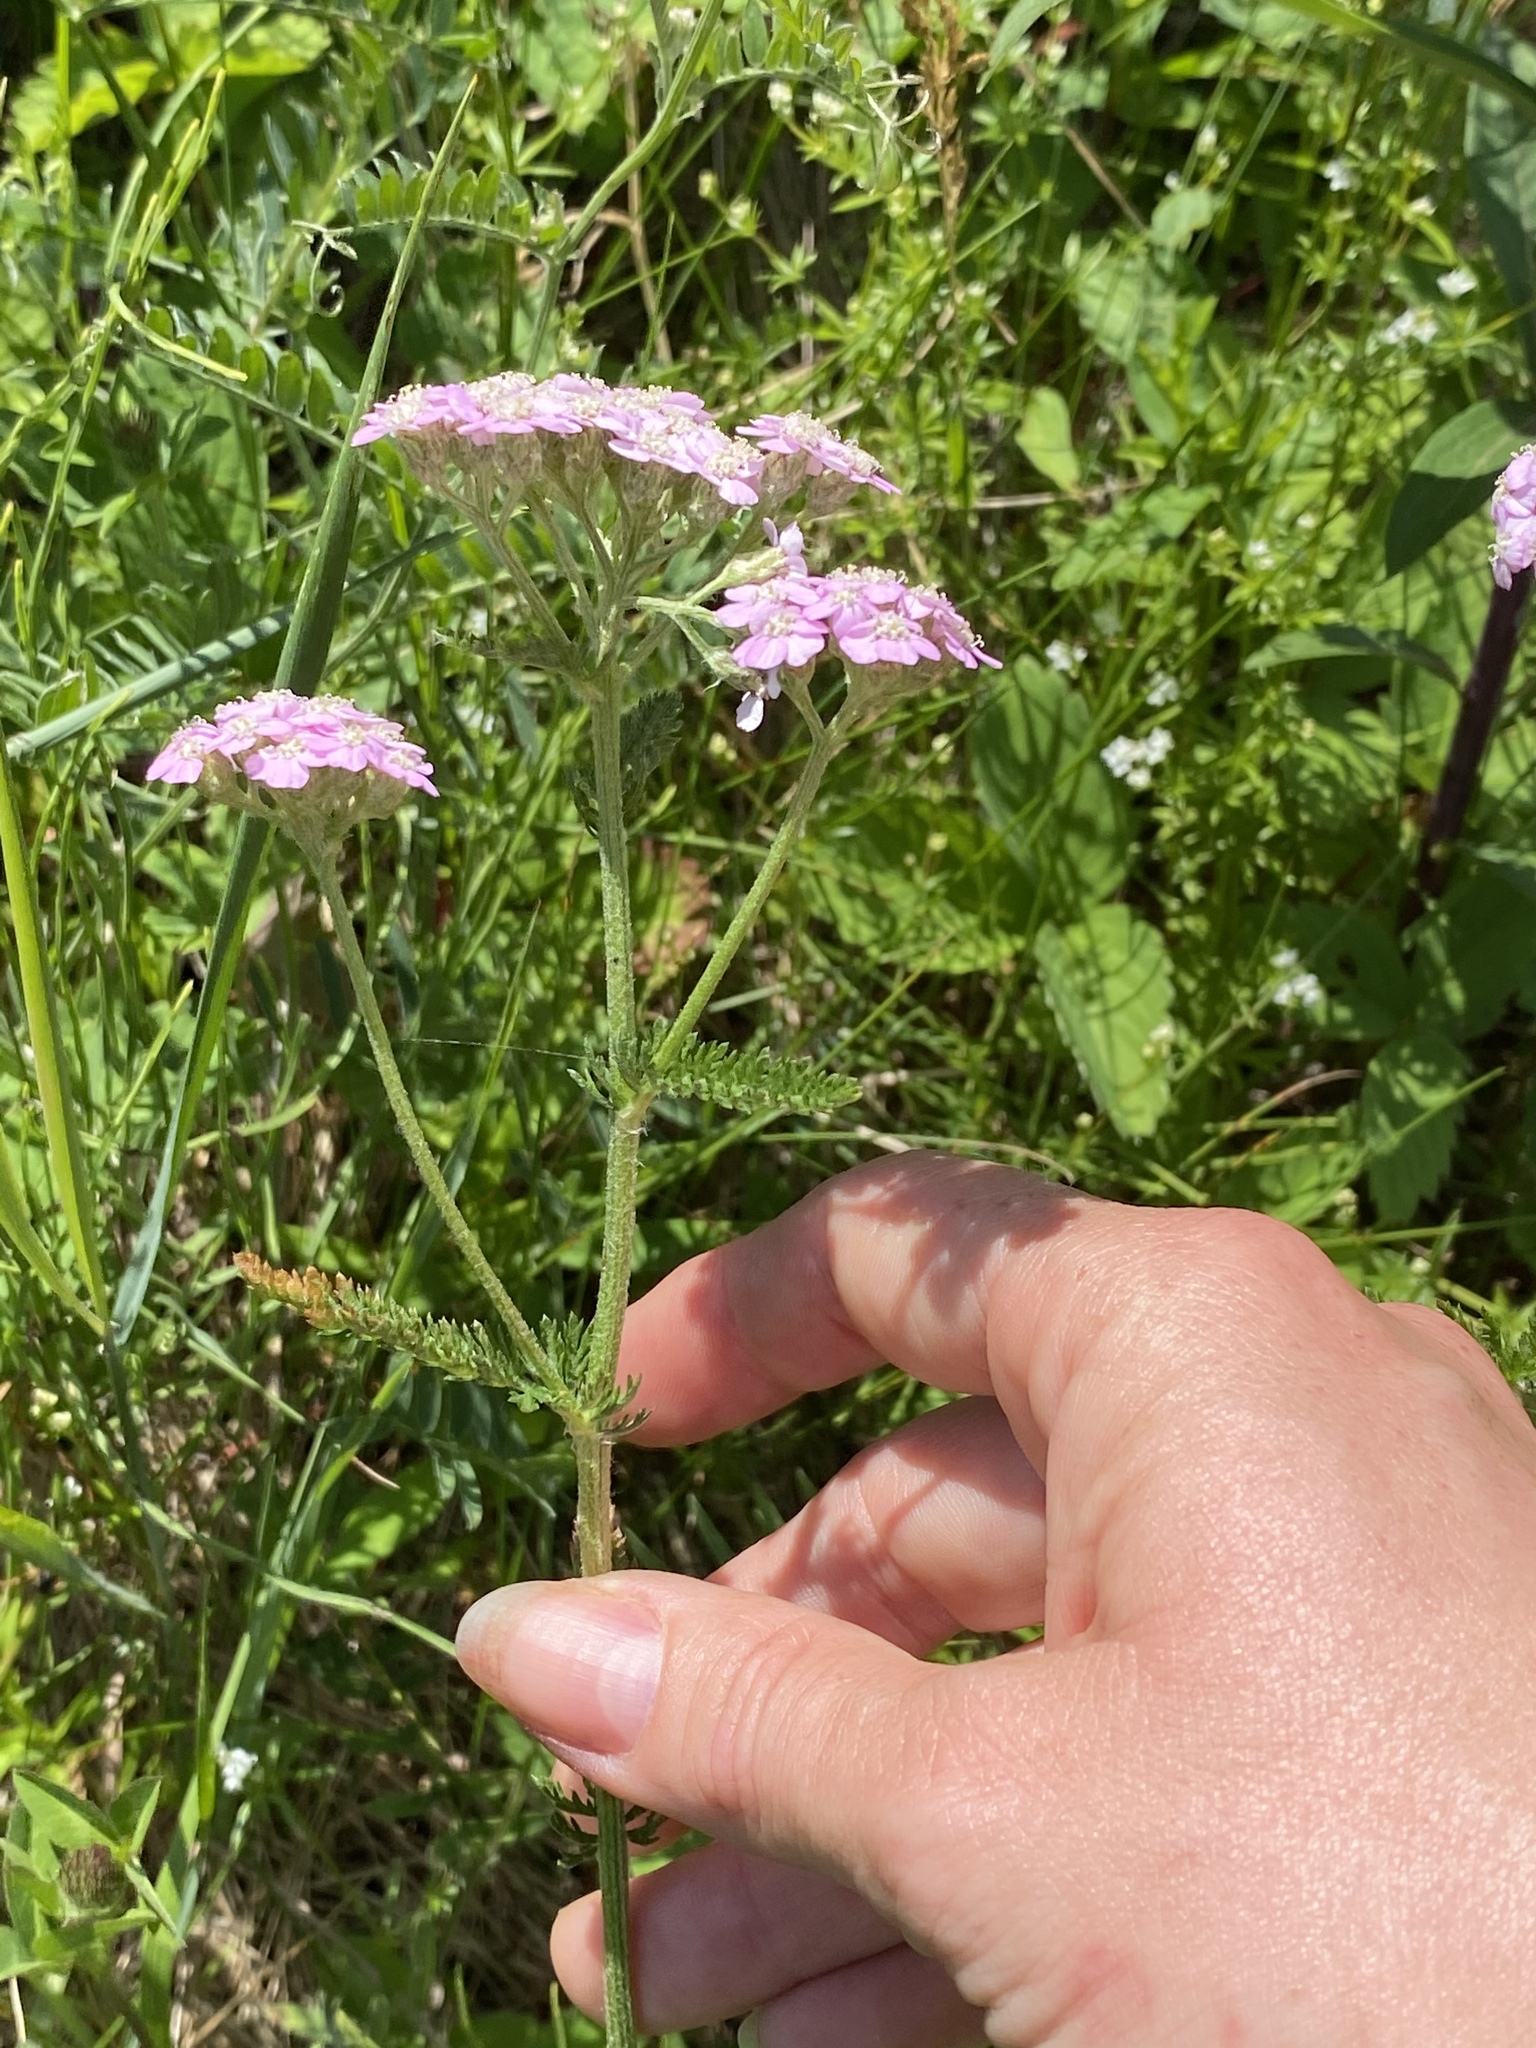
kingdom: Plantae
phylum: Tracheophyta
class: Magnoliopsida
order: Asterales
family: Asteraceae
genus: Achillea
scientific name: Achillea millefolium
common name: Yarrow
